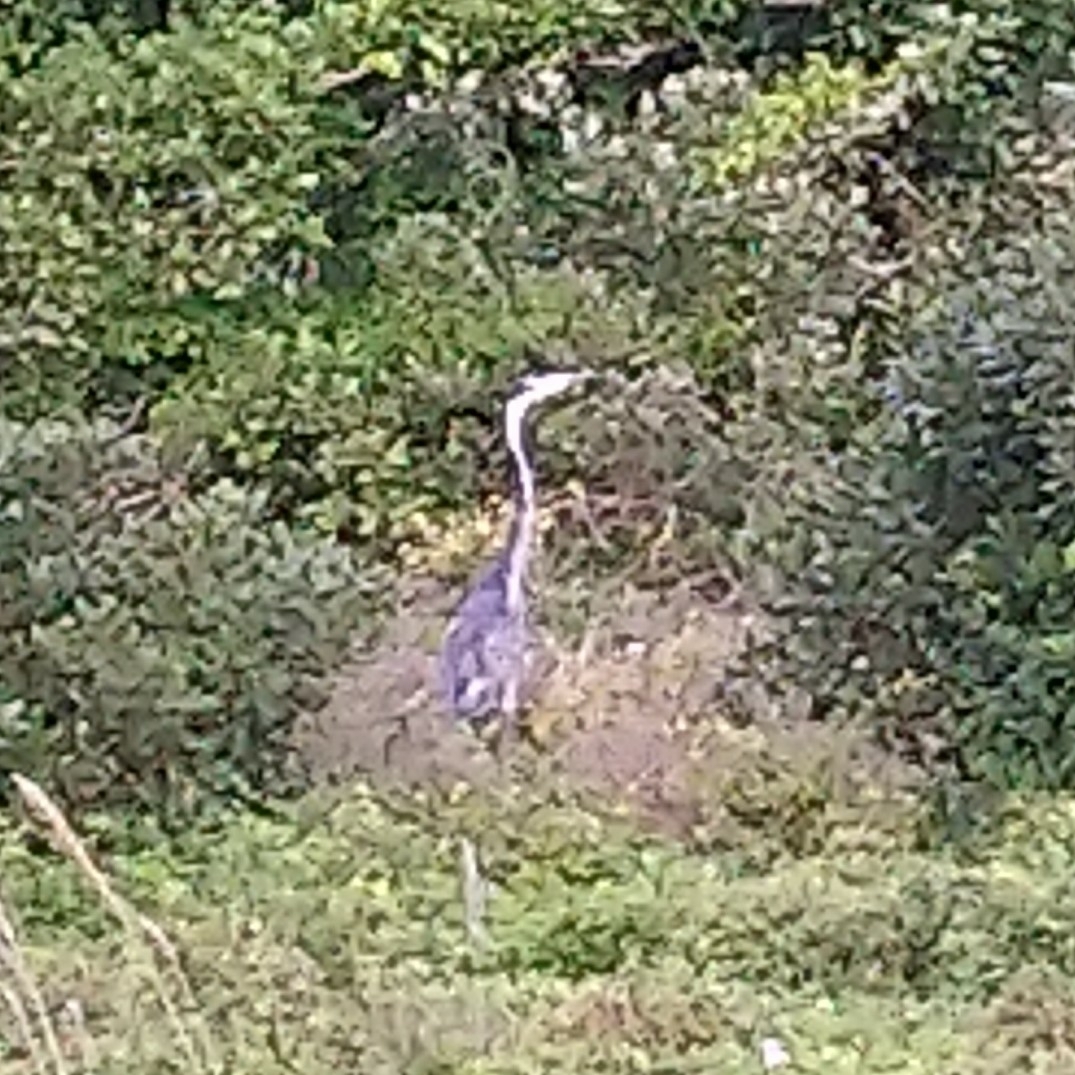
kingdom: Animalia
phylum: Chordata
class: Aves
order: Pelecaniformes
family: Ardeidae
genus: Ardea
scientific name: Ardea melanocephala
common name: Black-headed heron
